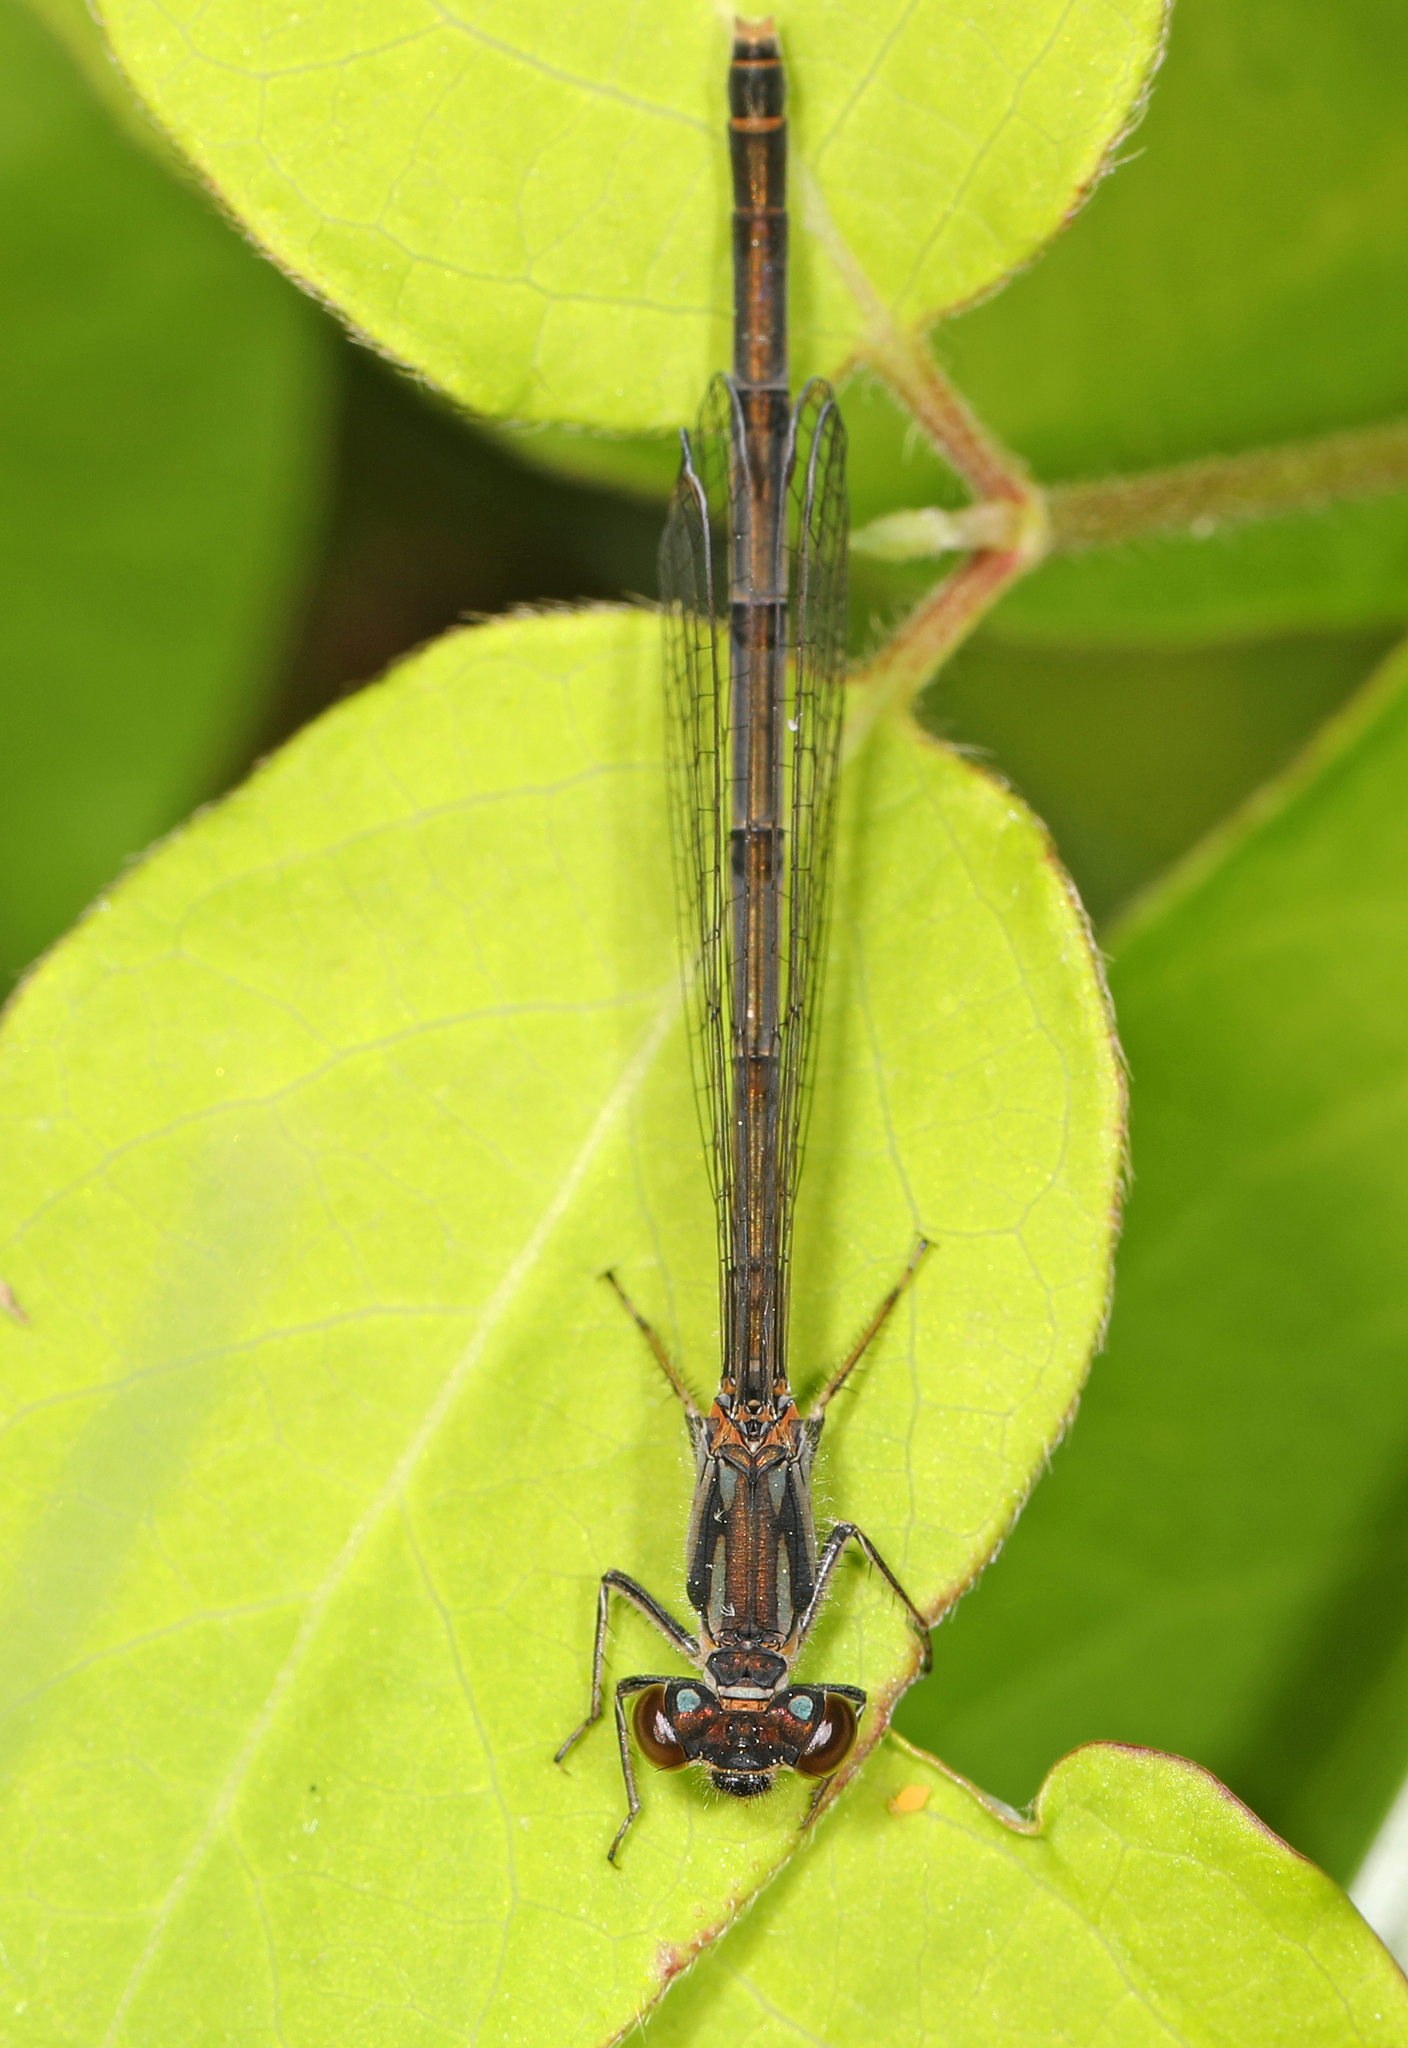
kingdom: Animalia
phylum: Arthropoda
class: Insecta
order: Odonata
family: Coenagrionidae
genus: Ischnura
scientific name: Ischnura posita
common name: Fragile forktail
